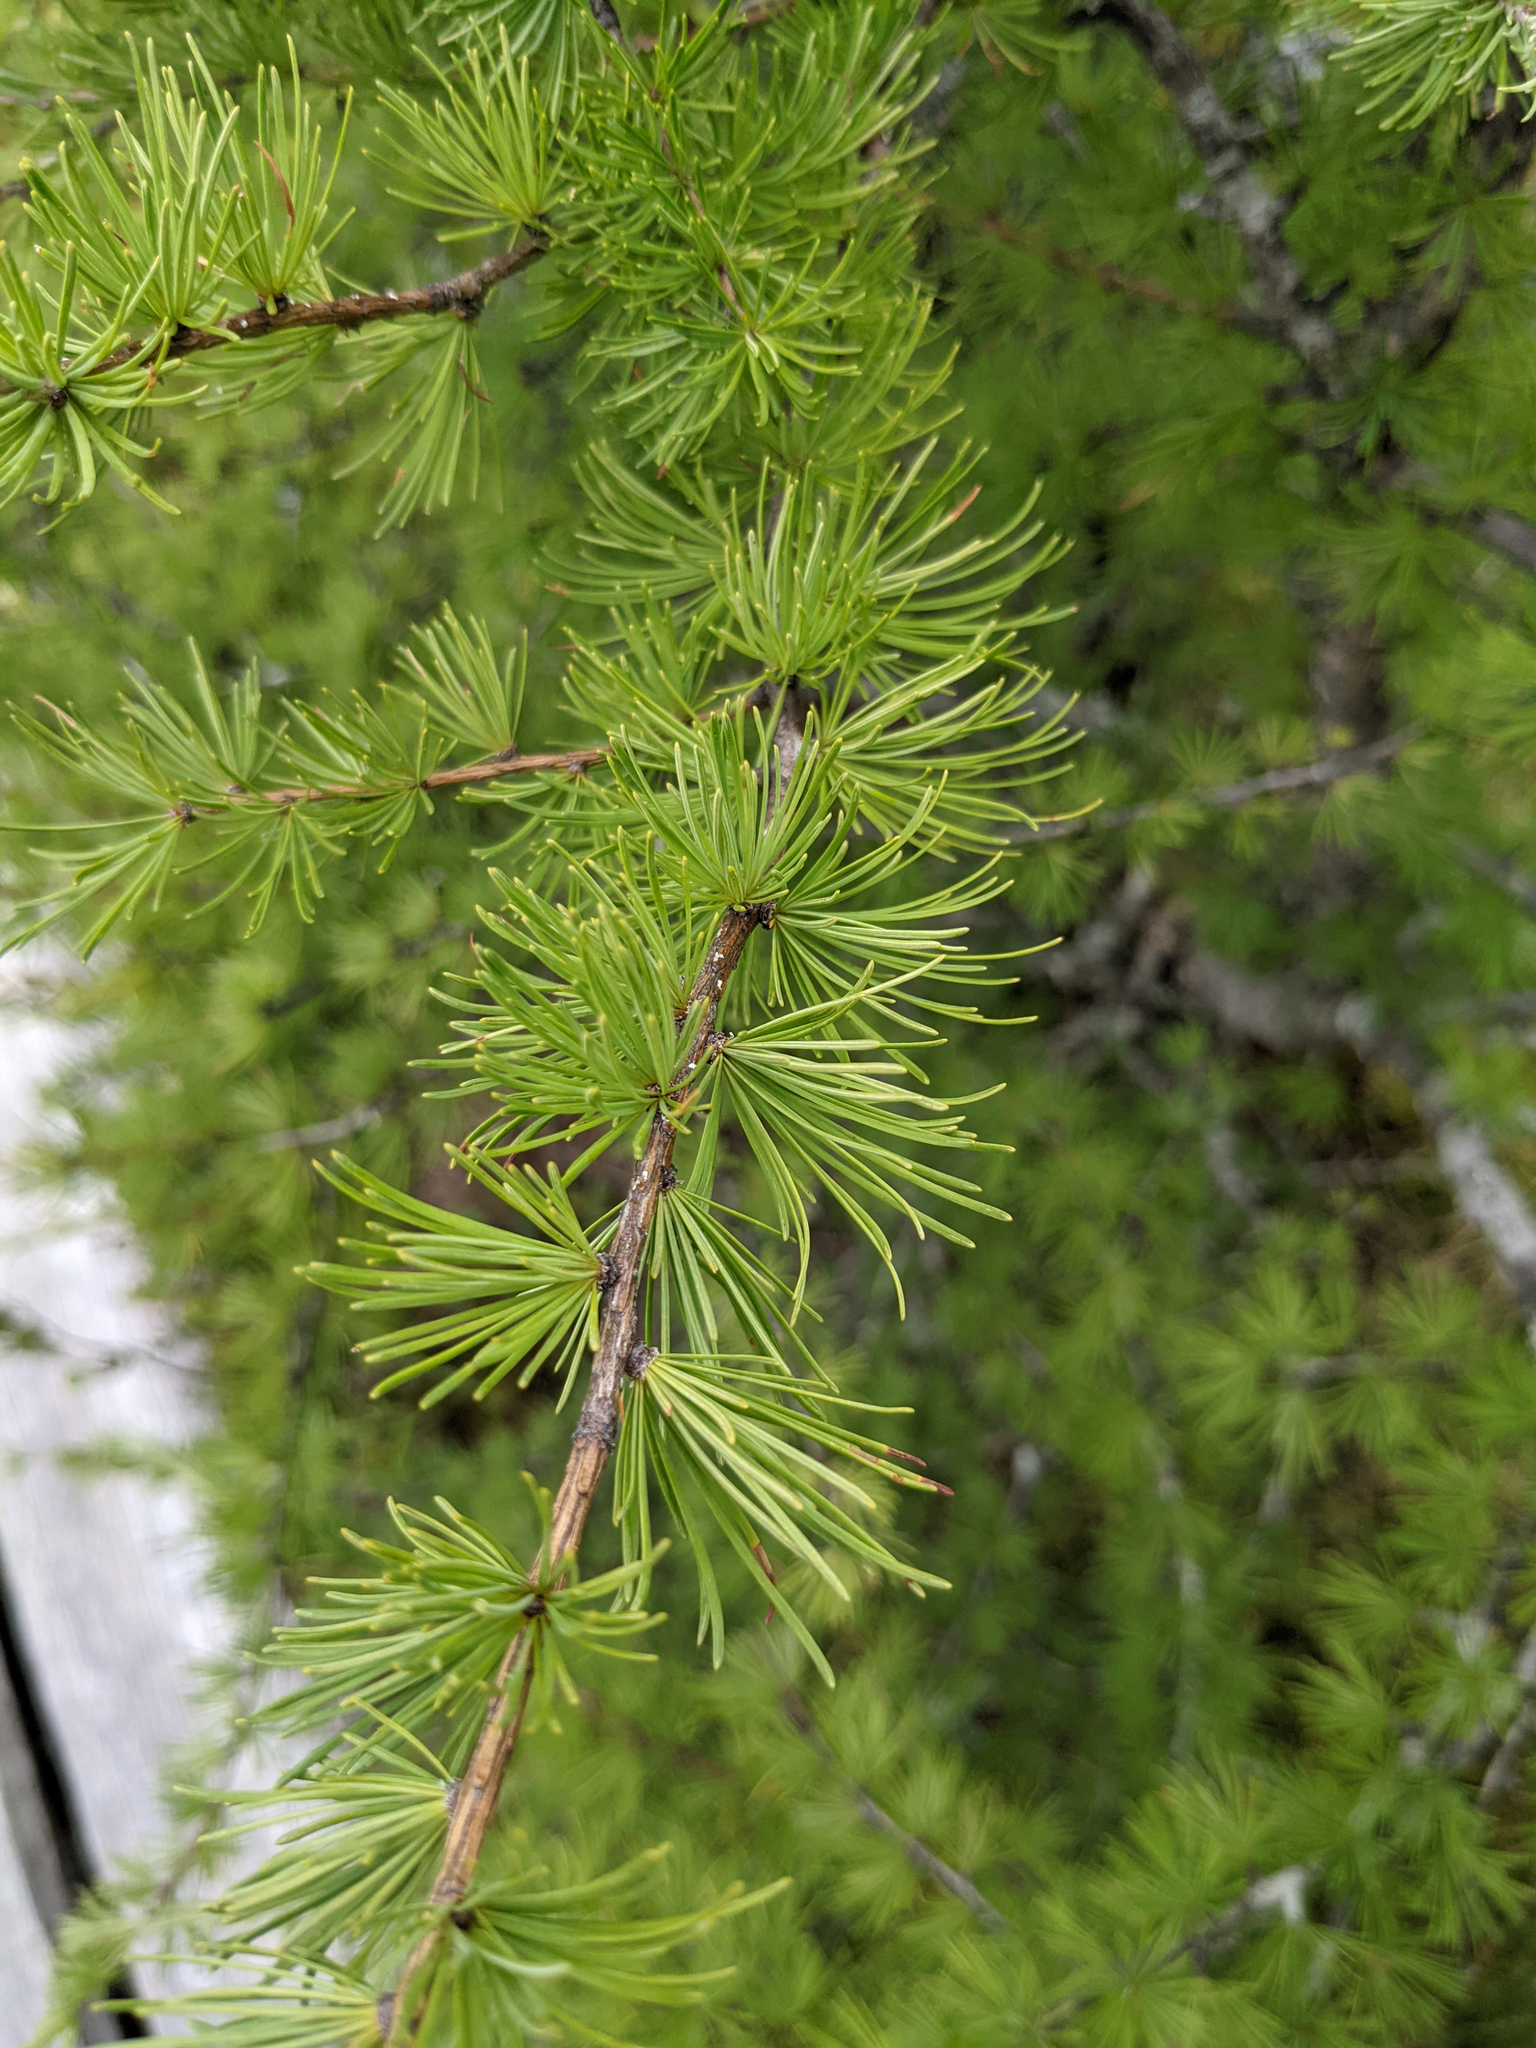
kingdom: Plantae
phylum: Tracheophyta
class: Pinopsida
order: Pinales
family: Pinaceae
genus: Larix
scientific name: Larix laricina
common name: American larch
